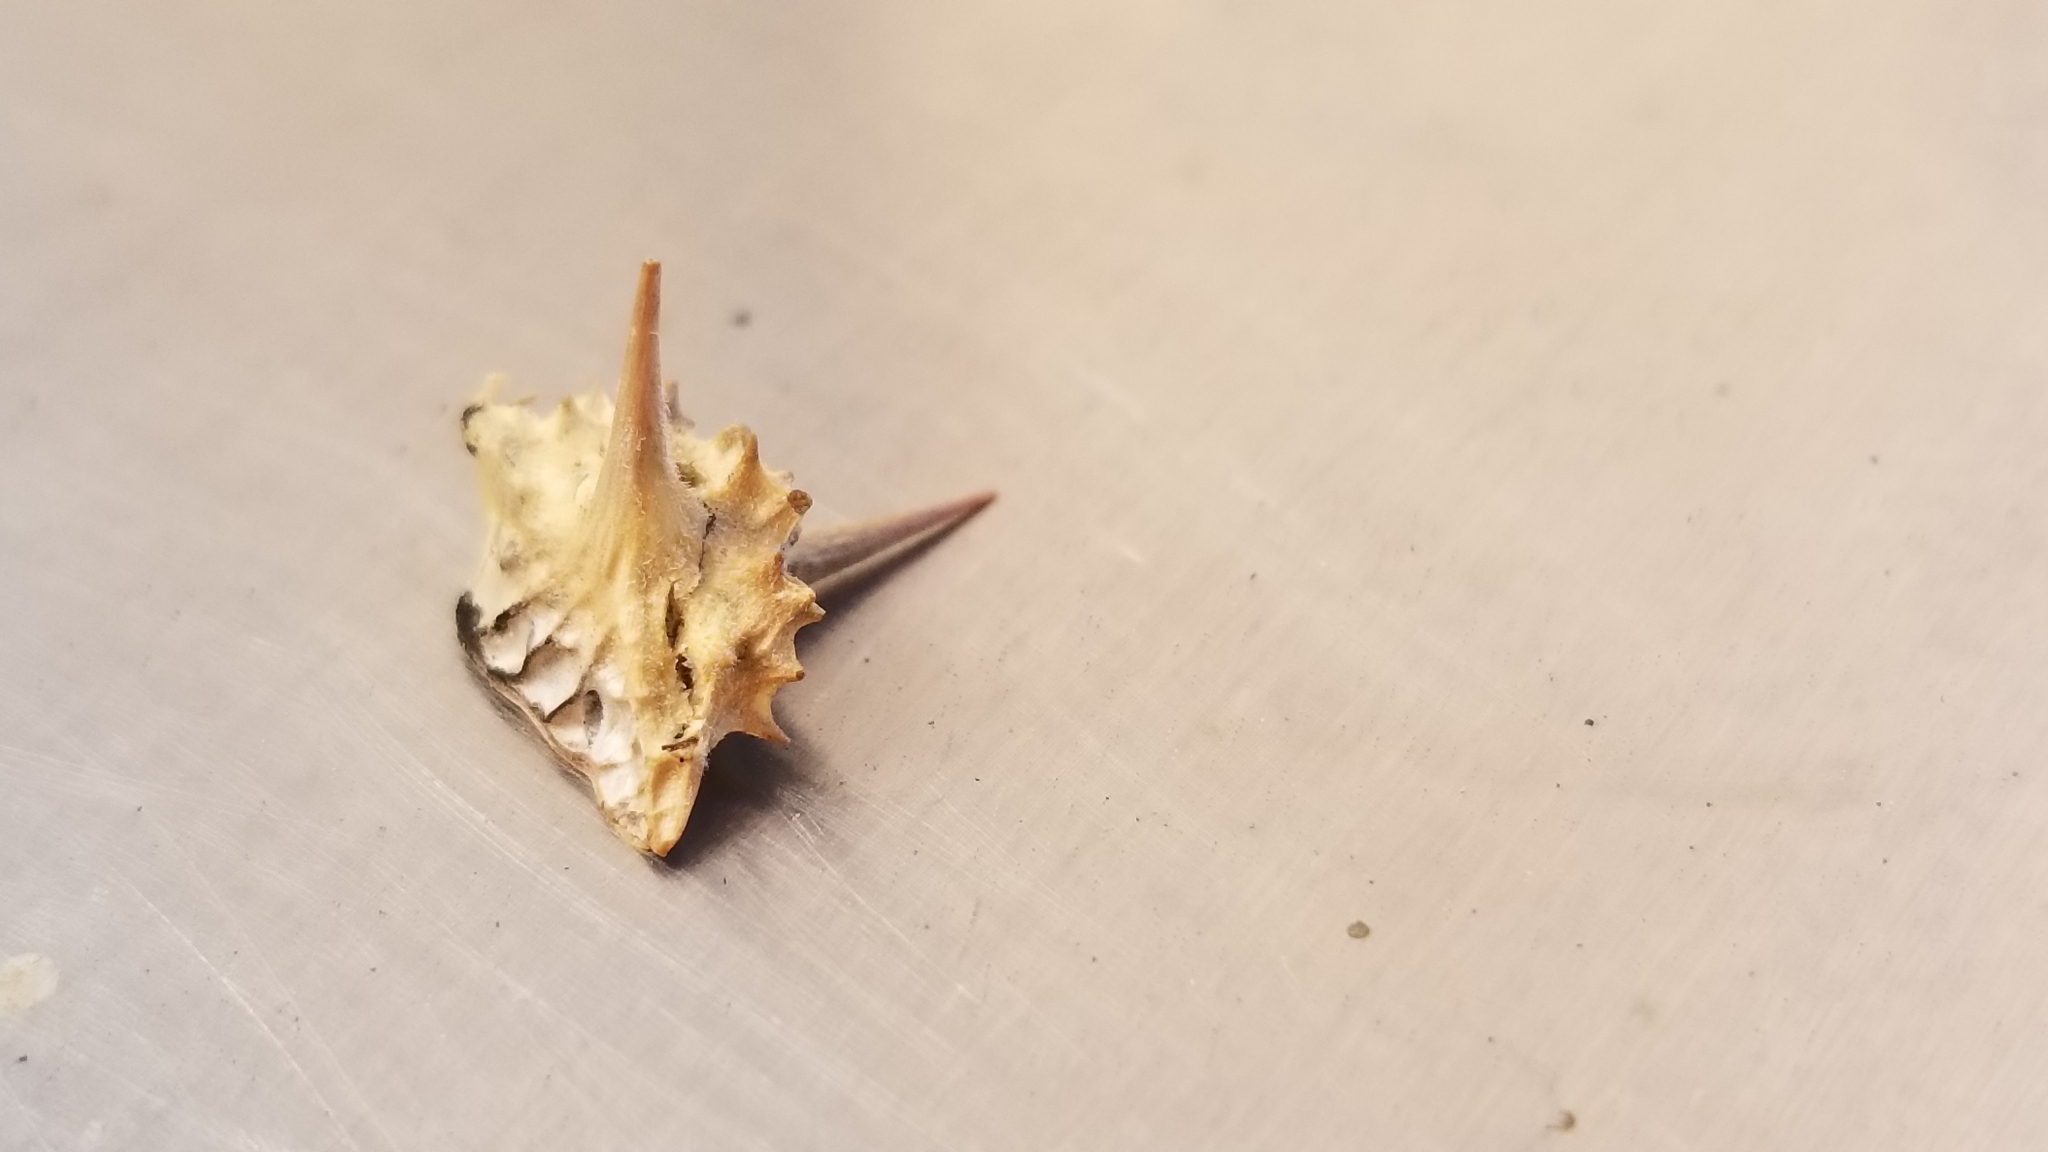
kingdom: Plantae
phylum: Tracheophyta
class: Magnoliopsida
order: Zygophyllales
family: Zygophyllaceae
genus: Tribulus
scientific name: Tribulus terrestris
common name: Puncturevine
